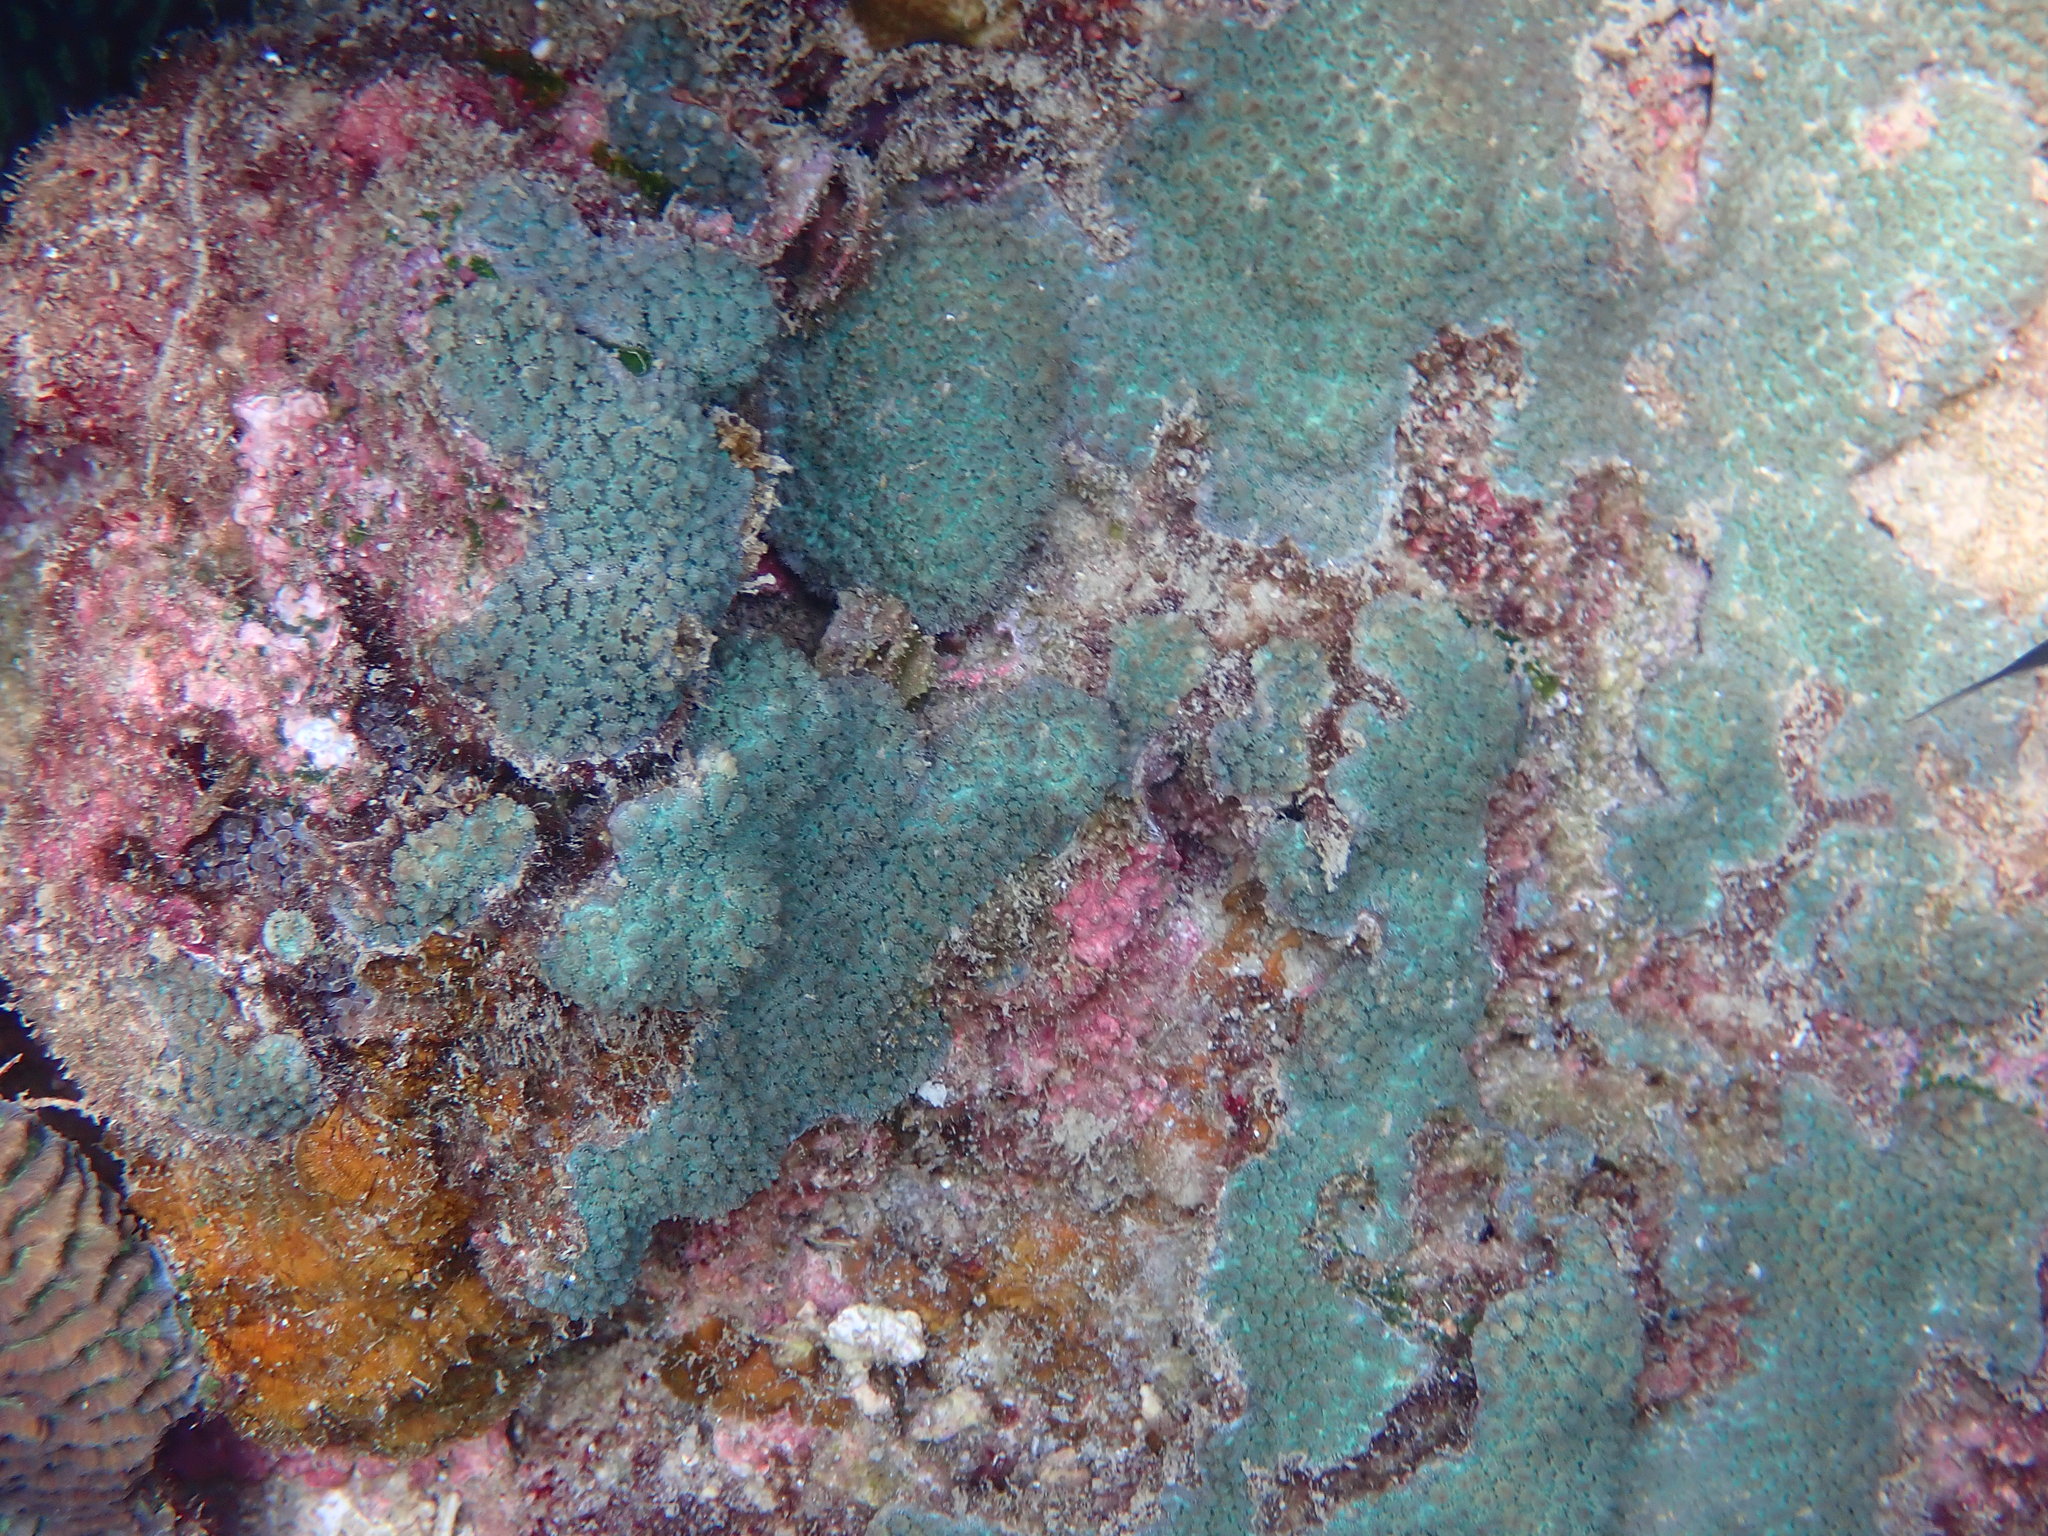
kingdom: Animalia
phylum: Cnidaria
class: Anthozoa
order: Scleractinia
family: Merulinidae
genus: Hydnophora
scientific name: Hydnophora exesa
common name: Spine coral
